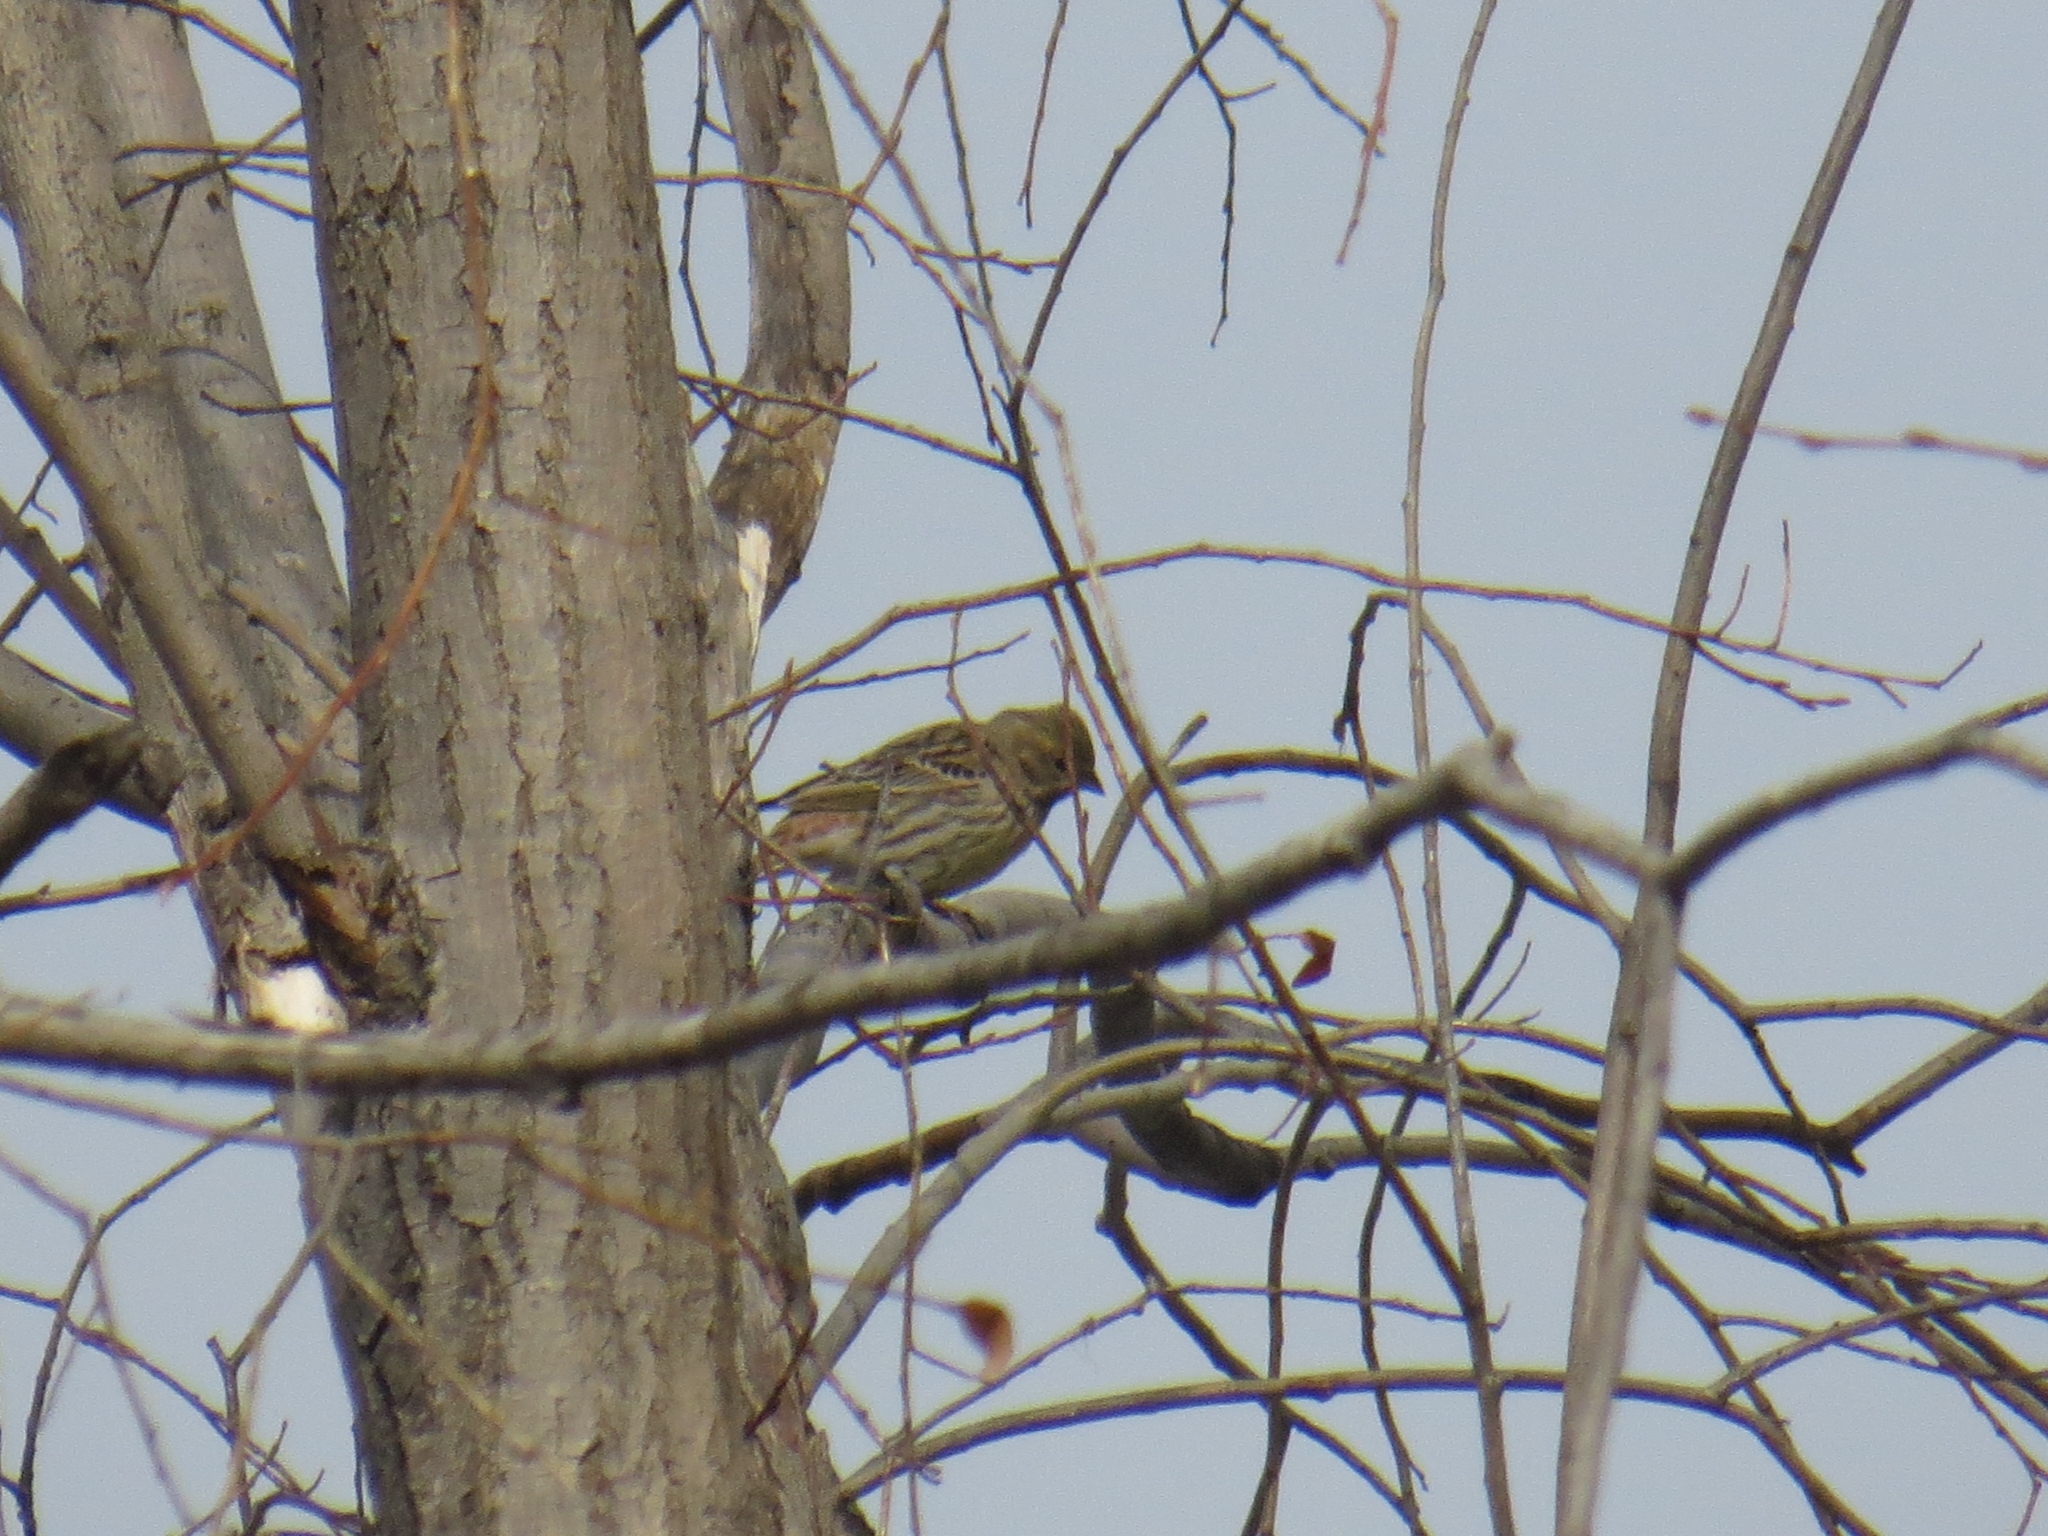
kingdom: Animalia
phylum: Chordata
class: Aves
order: Passeriformes
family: Emberizidae
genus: Emberiza
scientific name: Emberiza citrinella
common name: Yellowhammer
